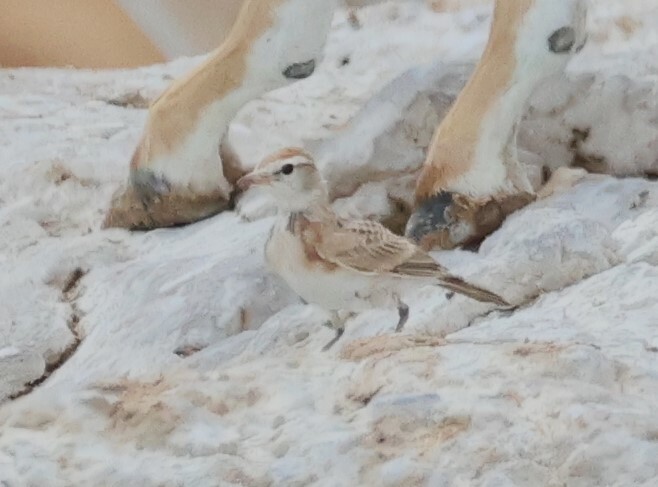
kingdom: Animalia
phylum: Chordata
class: Aves
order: Passeriformes
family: Alaudidae
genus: Calandrella
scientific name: Calandrella cinerea
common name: Red-capped lark
